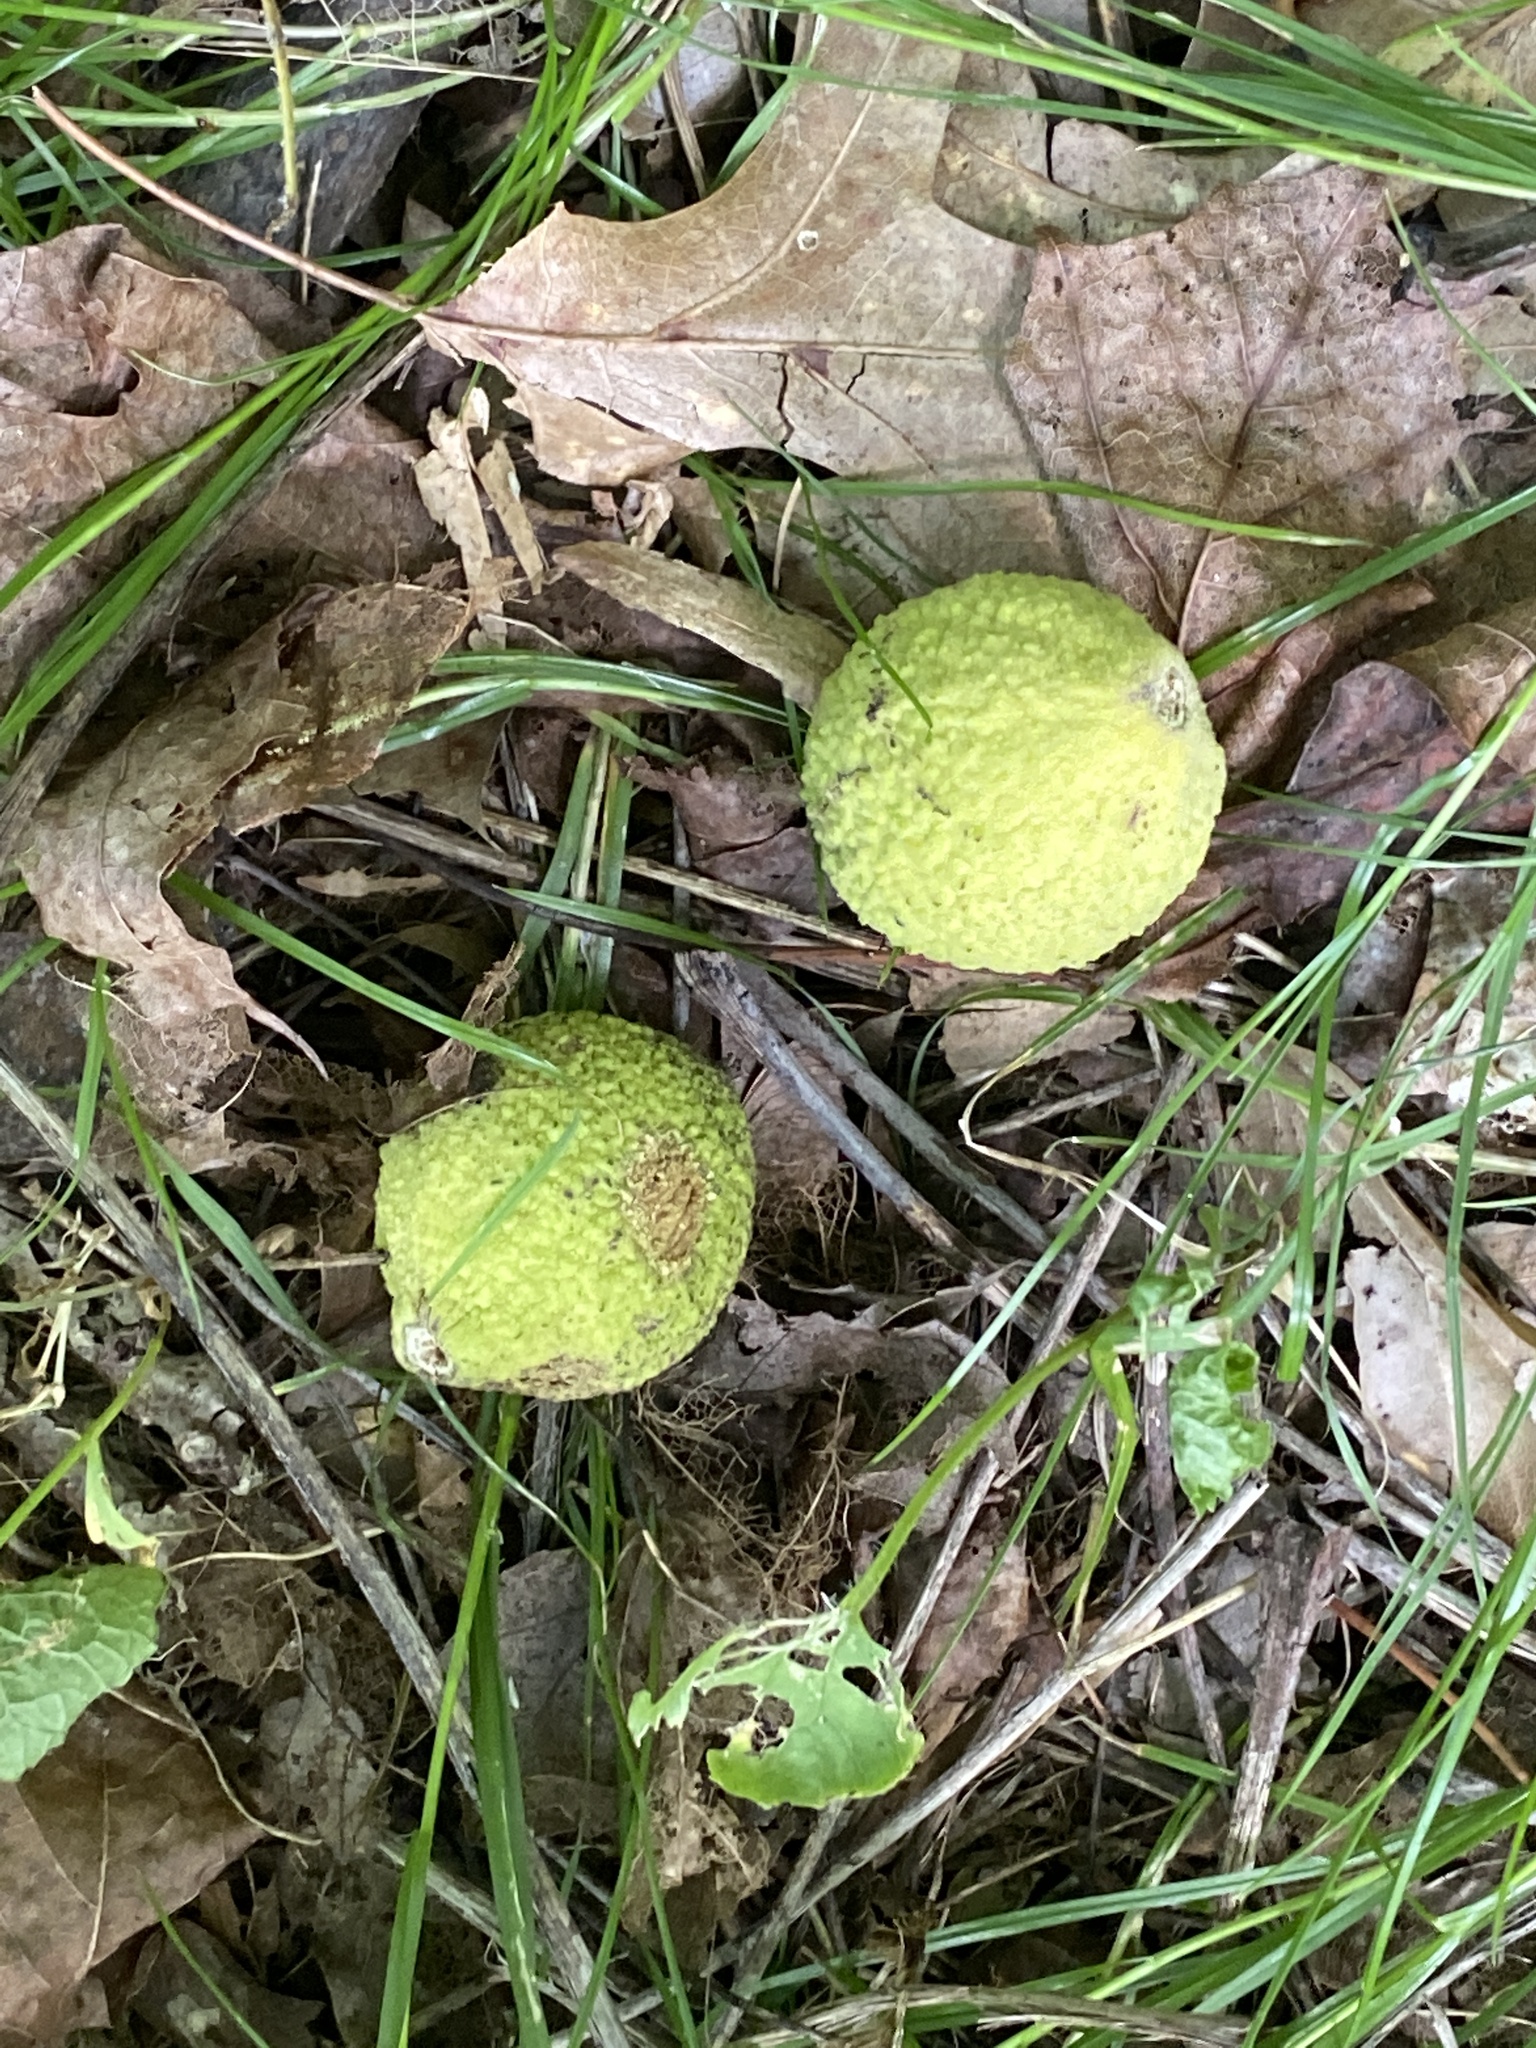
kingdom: Plantae
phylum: Tracheophyta
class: Magnoliopsida
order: Fagales
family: Juglandaceae
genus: Juglans
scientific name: Juglans nigra
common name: Black walnut
